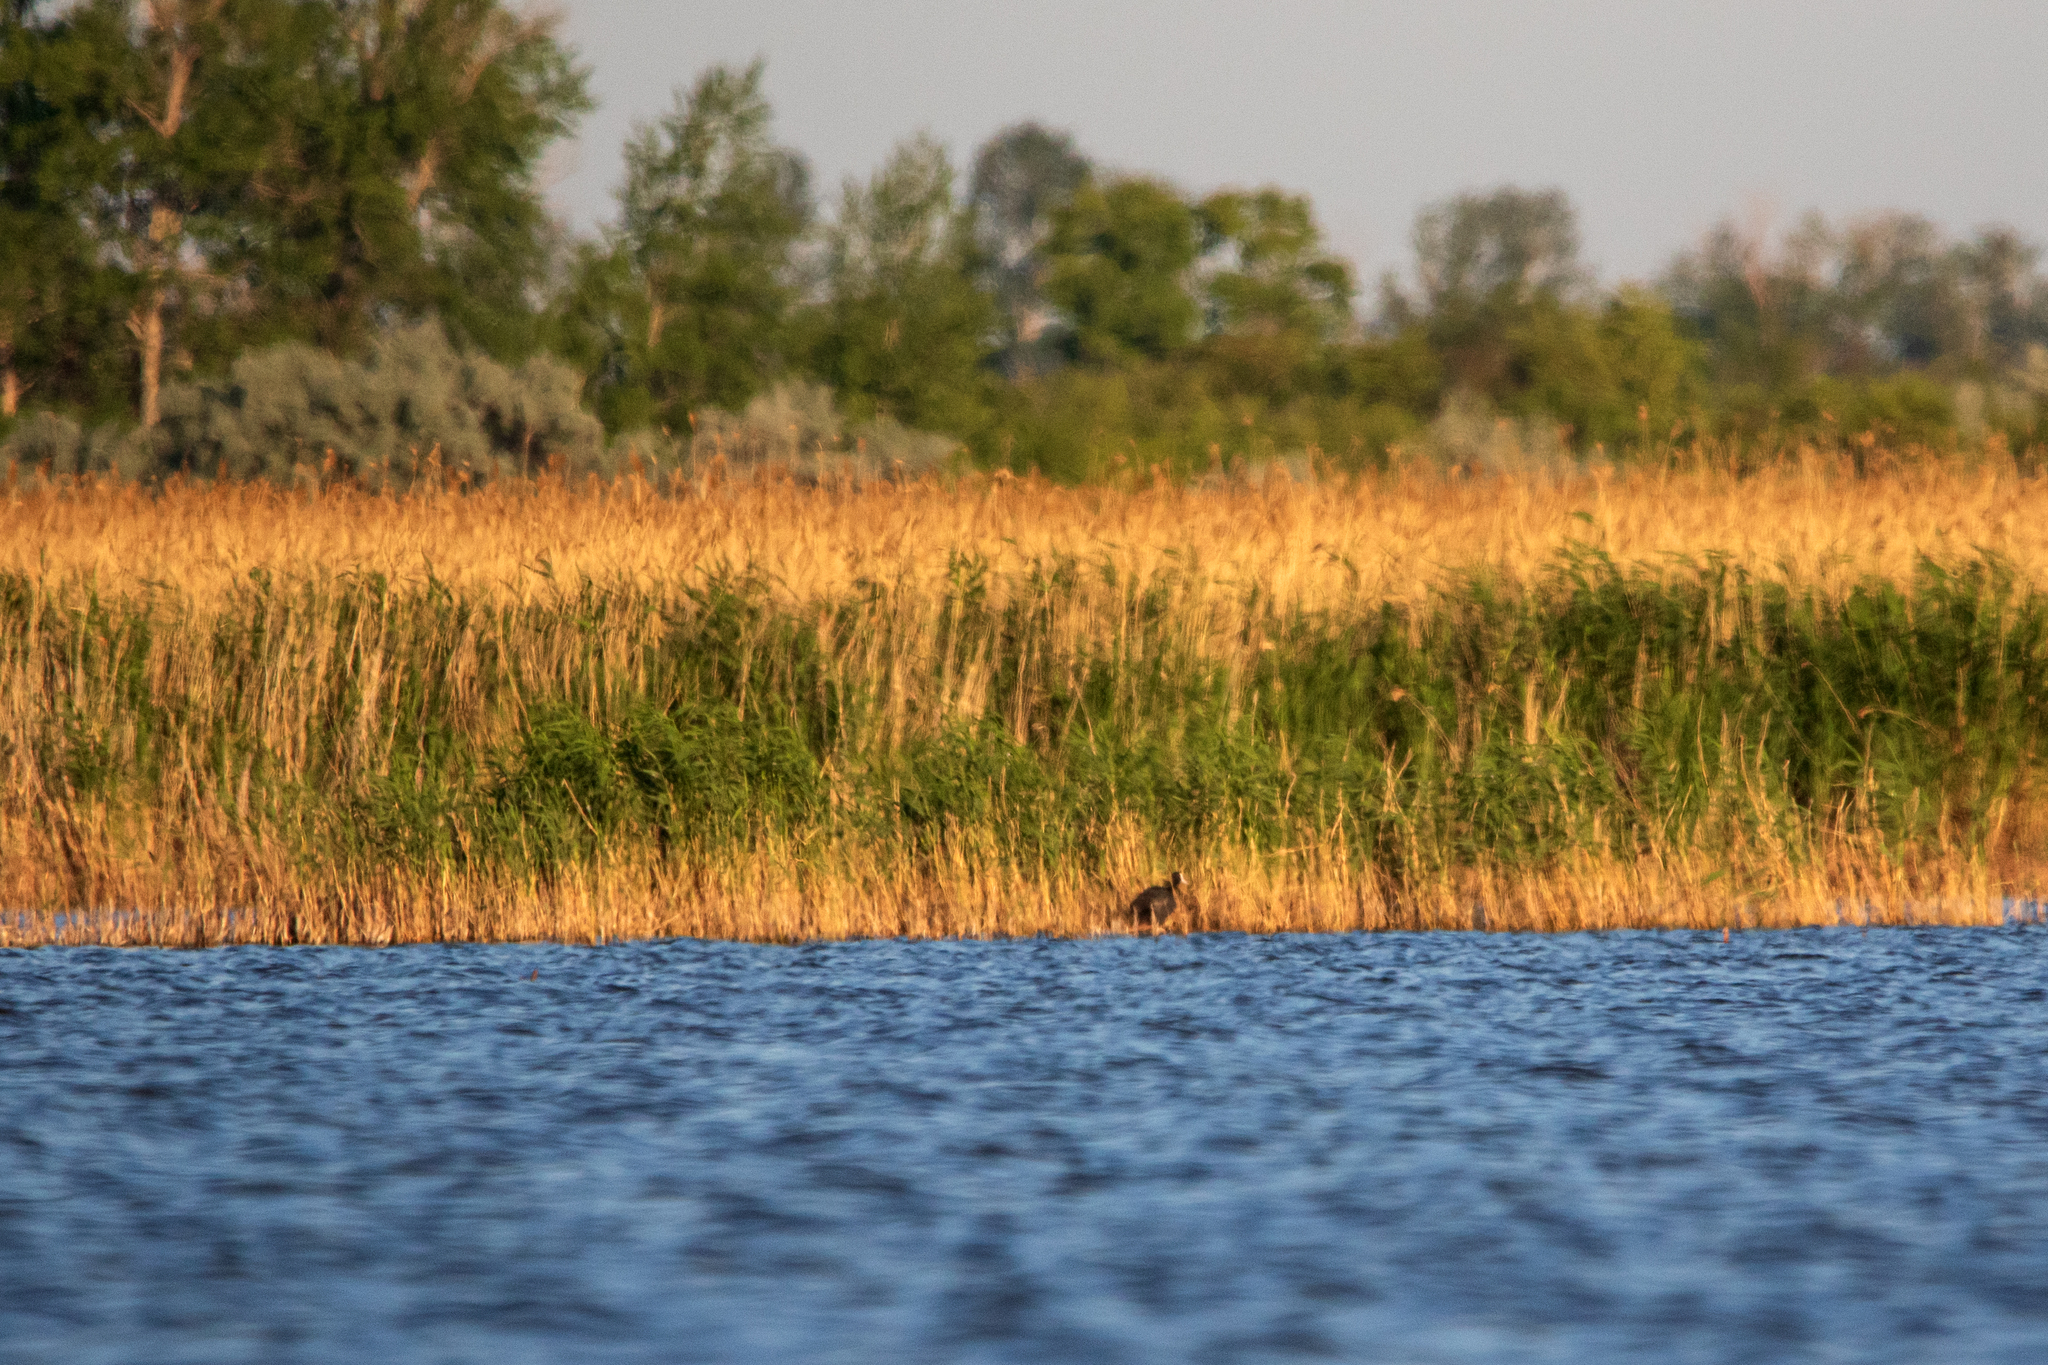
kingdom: Animalia
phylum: Chordata
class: Aves
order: Gruiformes
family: Rallidae
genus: Fulica
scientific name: Fulica atra
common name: Eurasian coot
